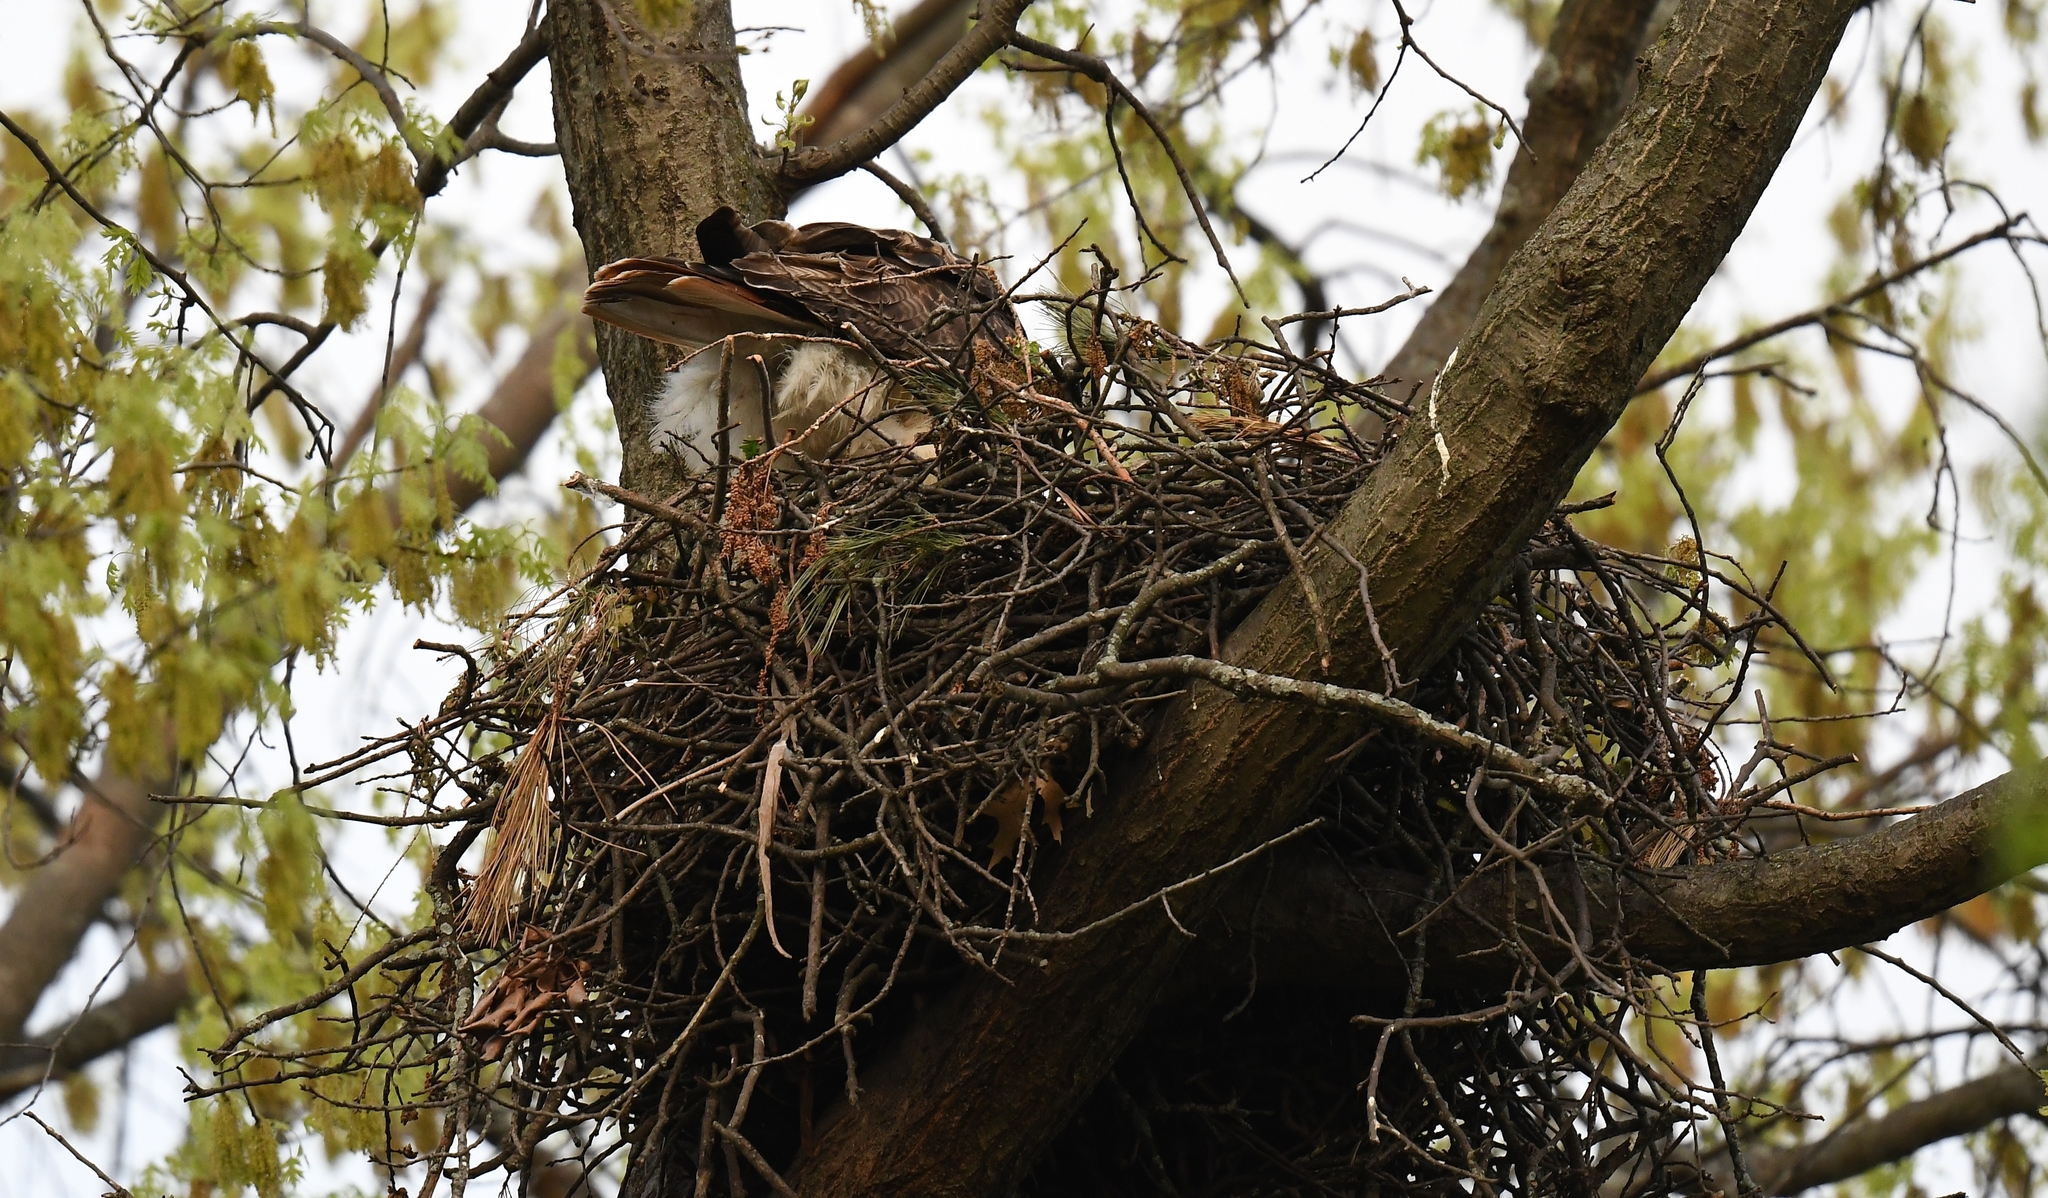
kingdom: Animalia
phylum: Chordata
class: Aves
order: Accipitriformes
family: Accipitridae
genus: Buteo
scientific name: Buteo jamaicensis
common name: Red-tailed hawk
